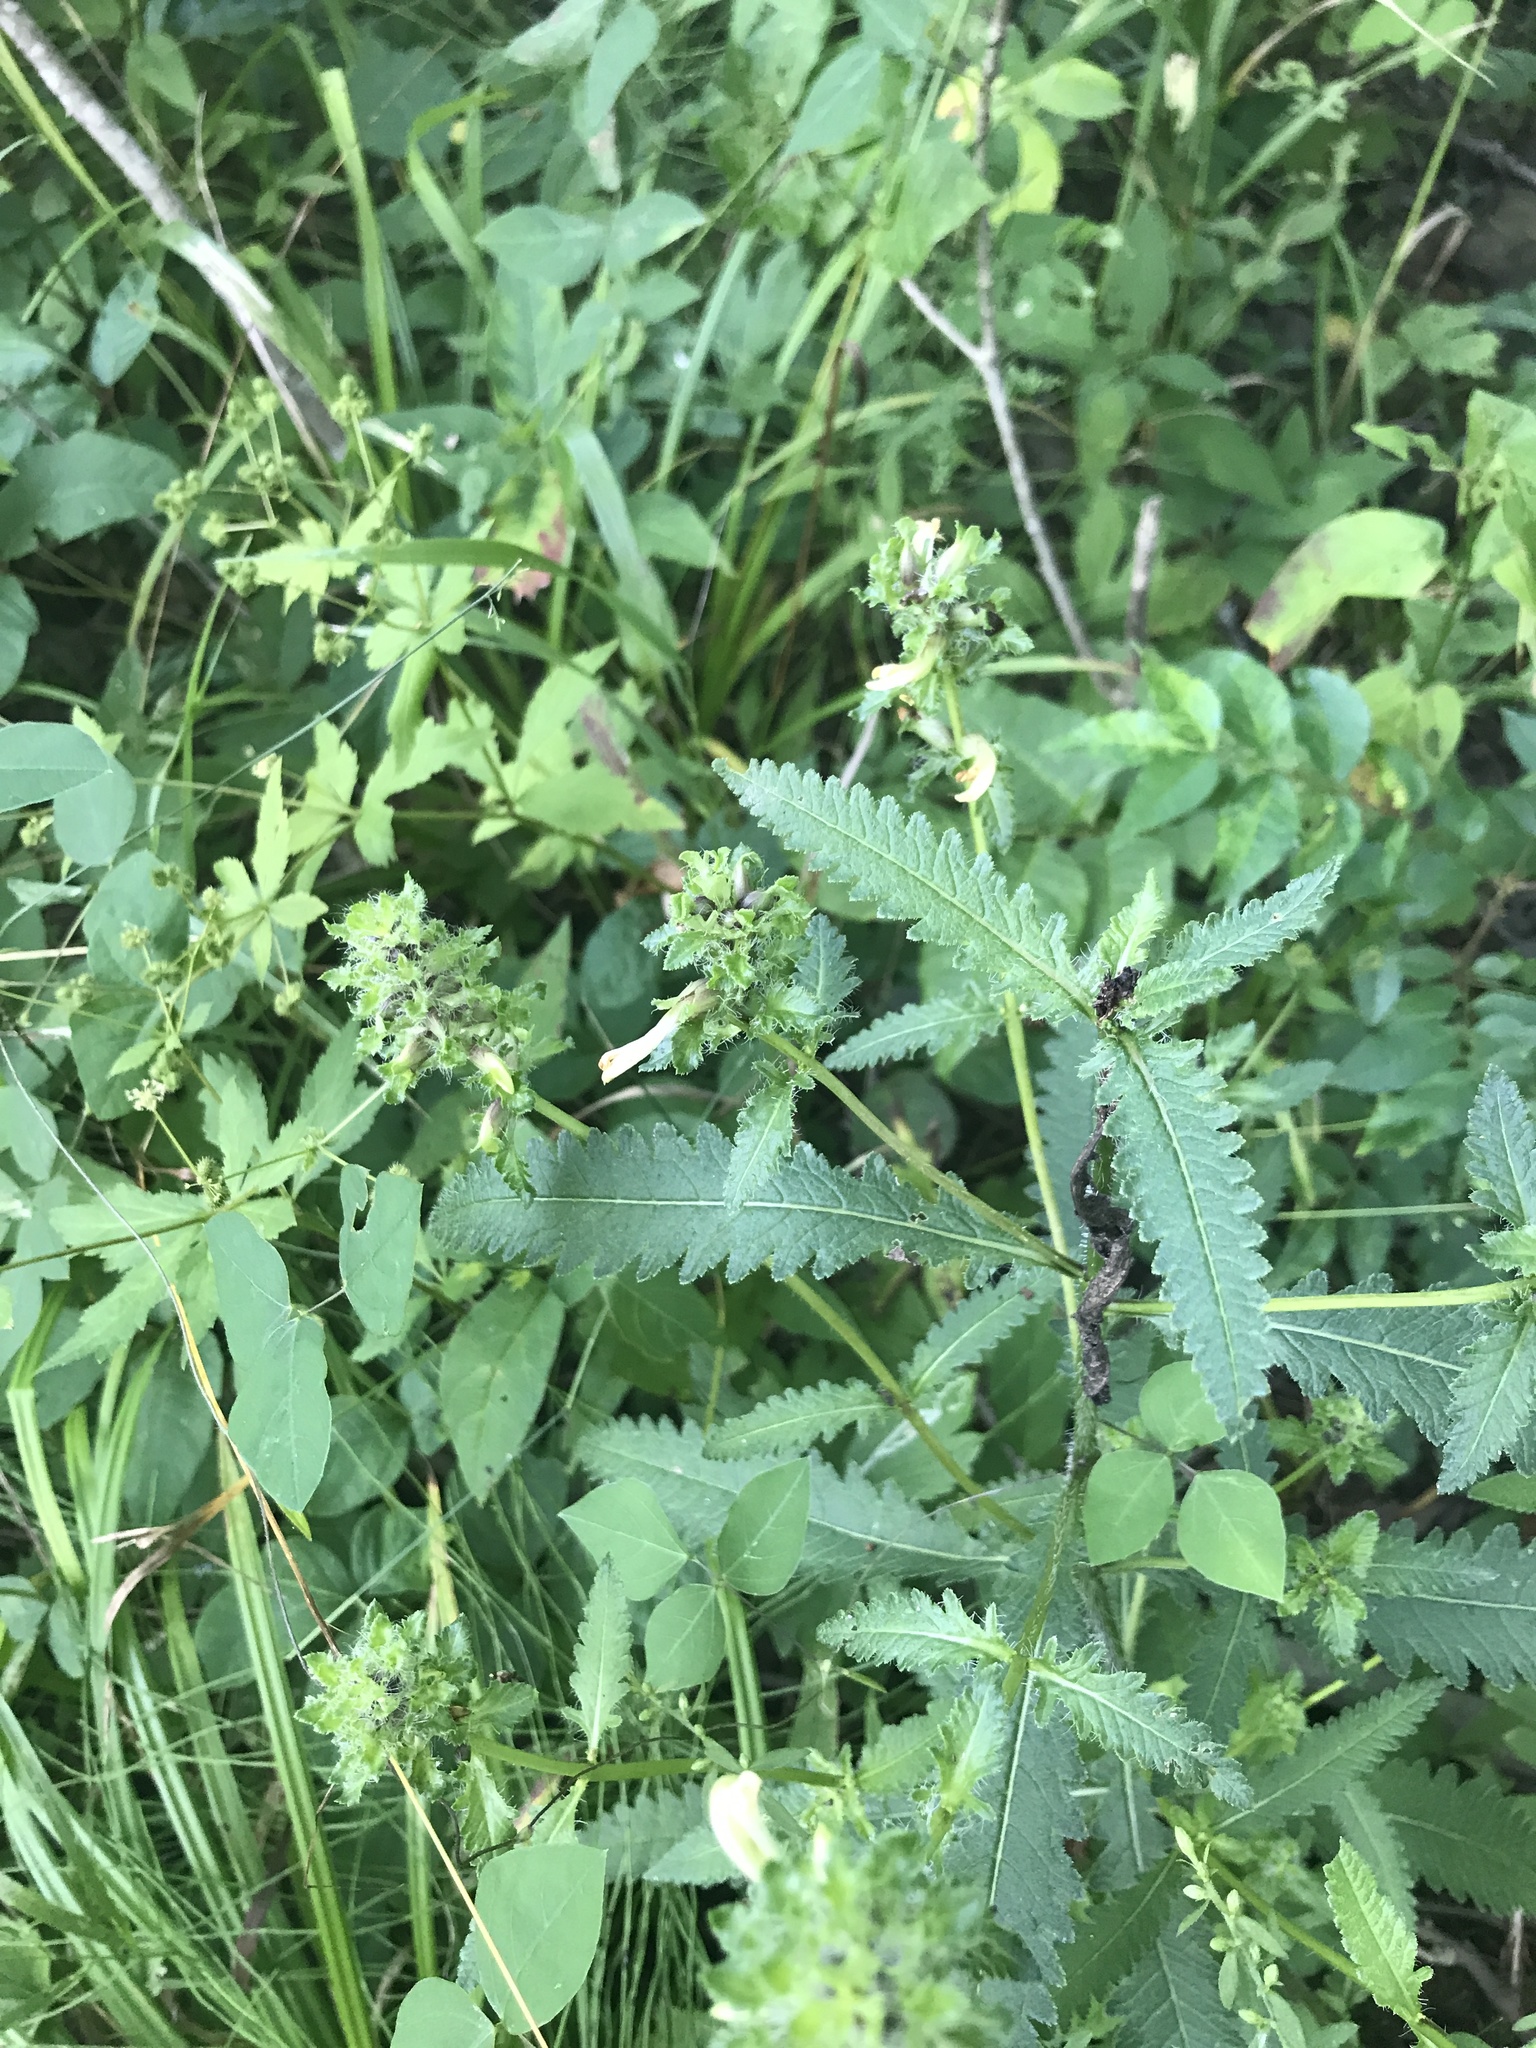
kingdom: Plantae
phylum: Tracheophyta
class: Magnoliopsida
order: Lamiales
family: Orobanchaceae
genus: Pedicularis
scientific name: Pedicularis lanceolata
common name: Swamp lousewort
